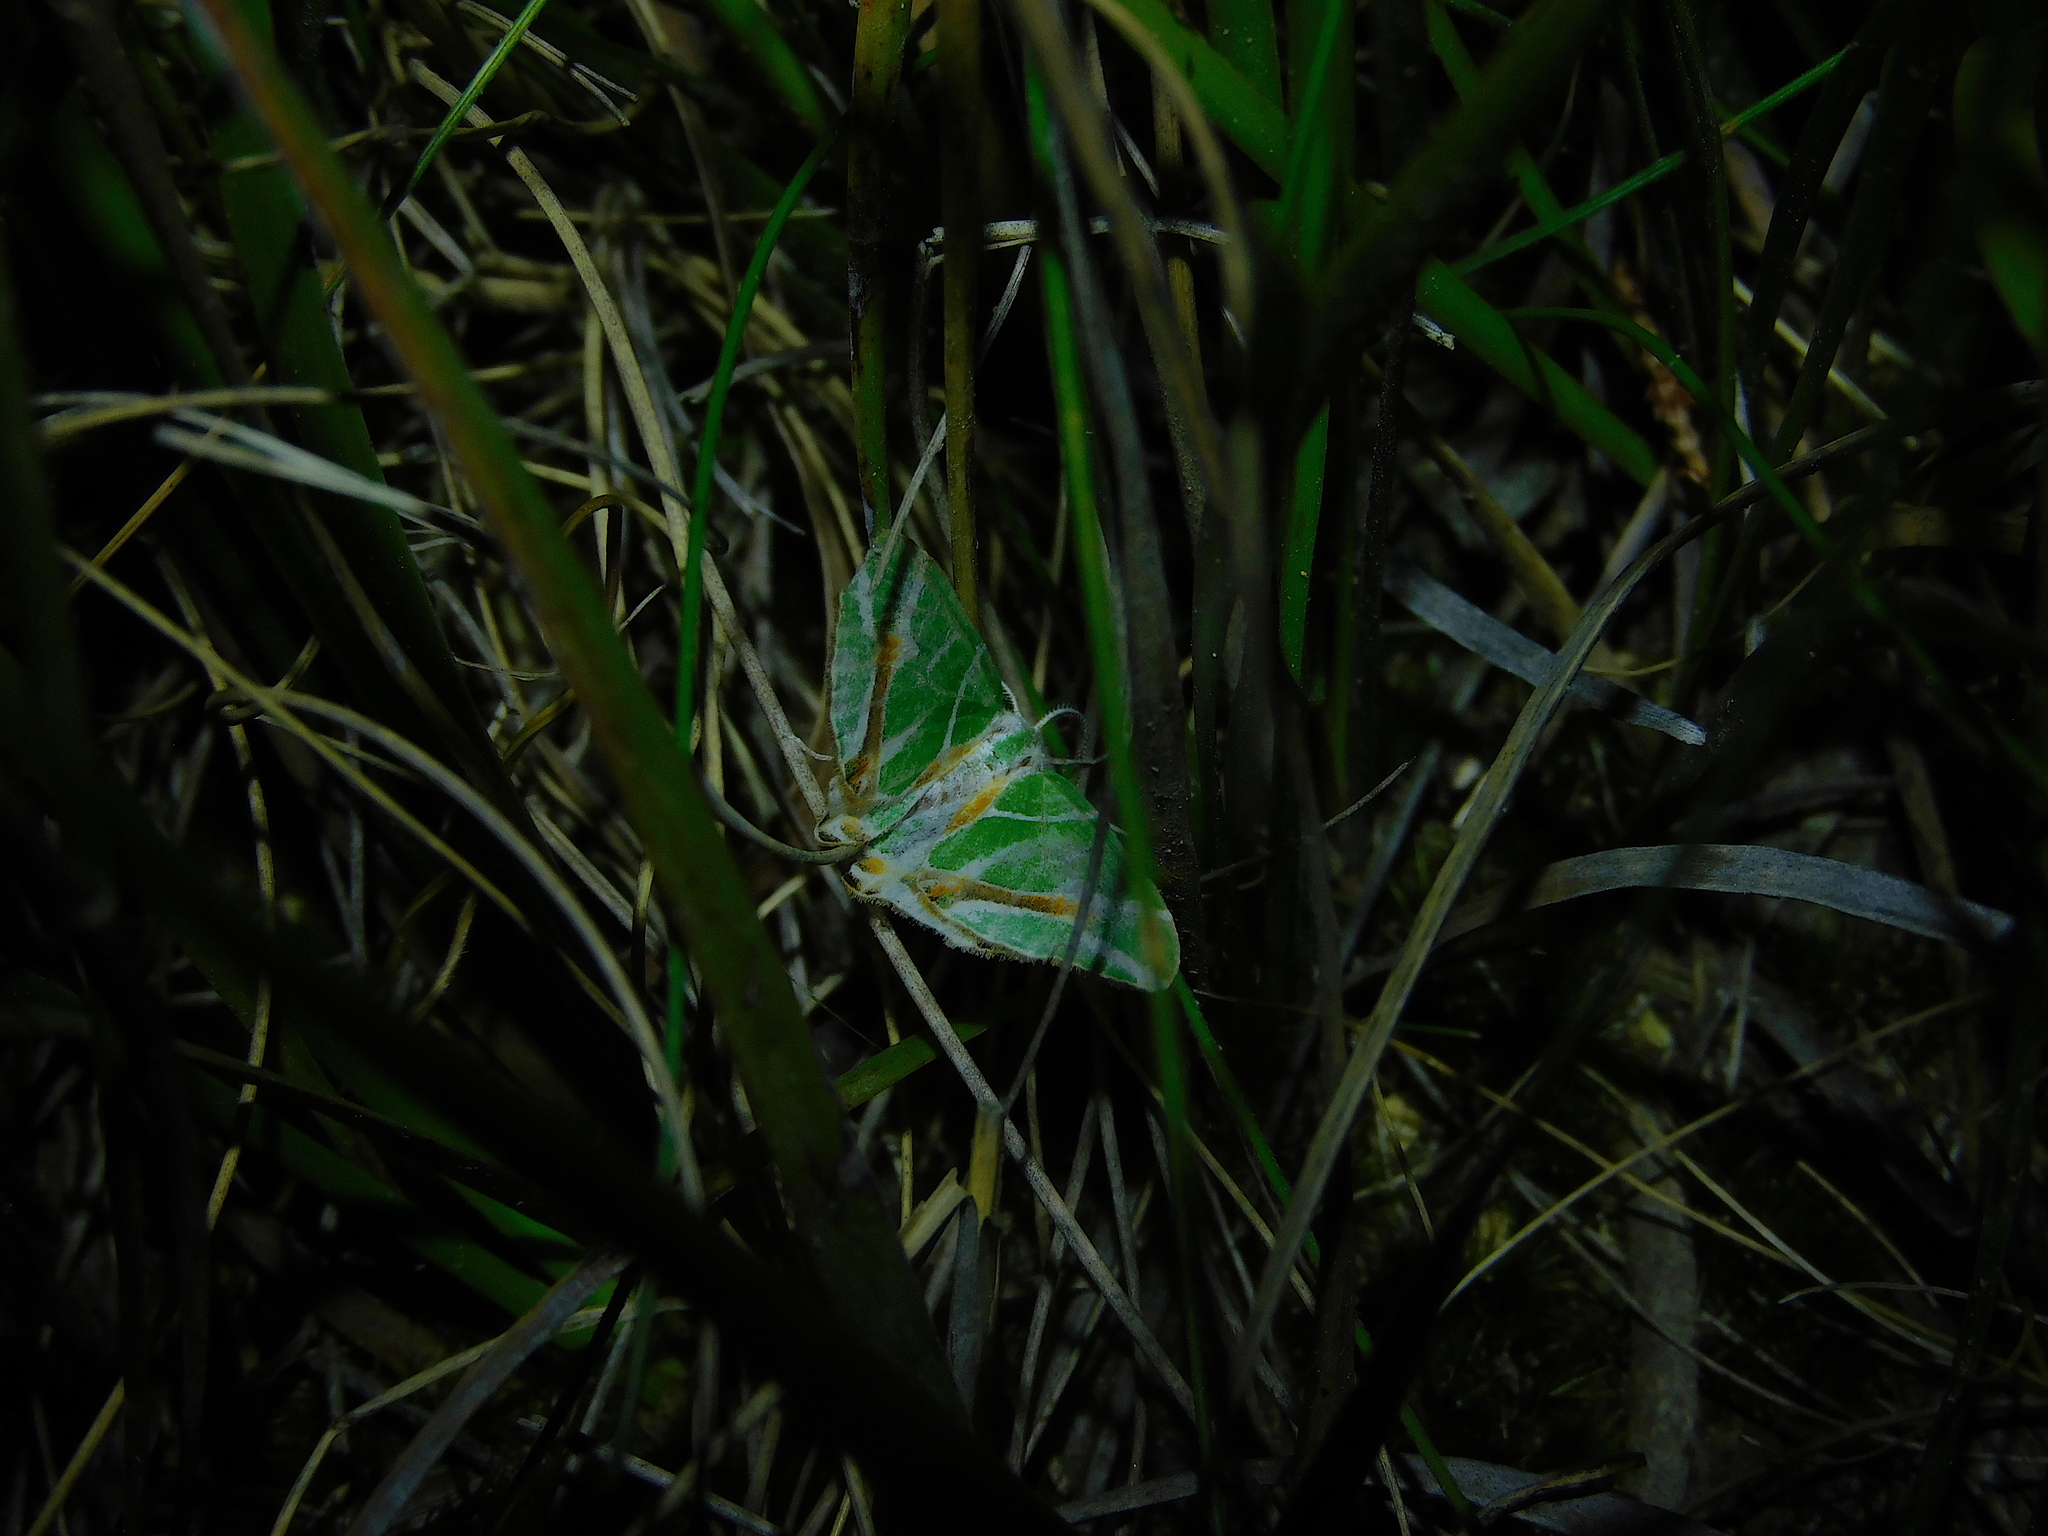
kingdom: Animalia
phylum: Arthropoda
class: Insecta
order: Lepidoptera
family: Geometridae
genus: Chlorodes
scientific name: Chlorodes boisduvalaria
